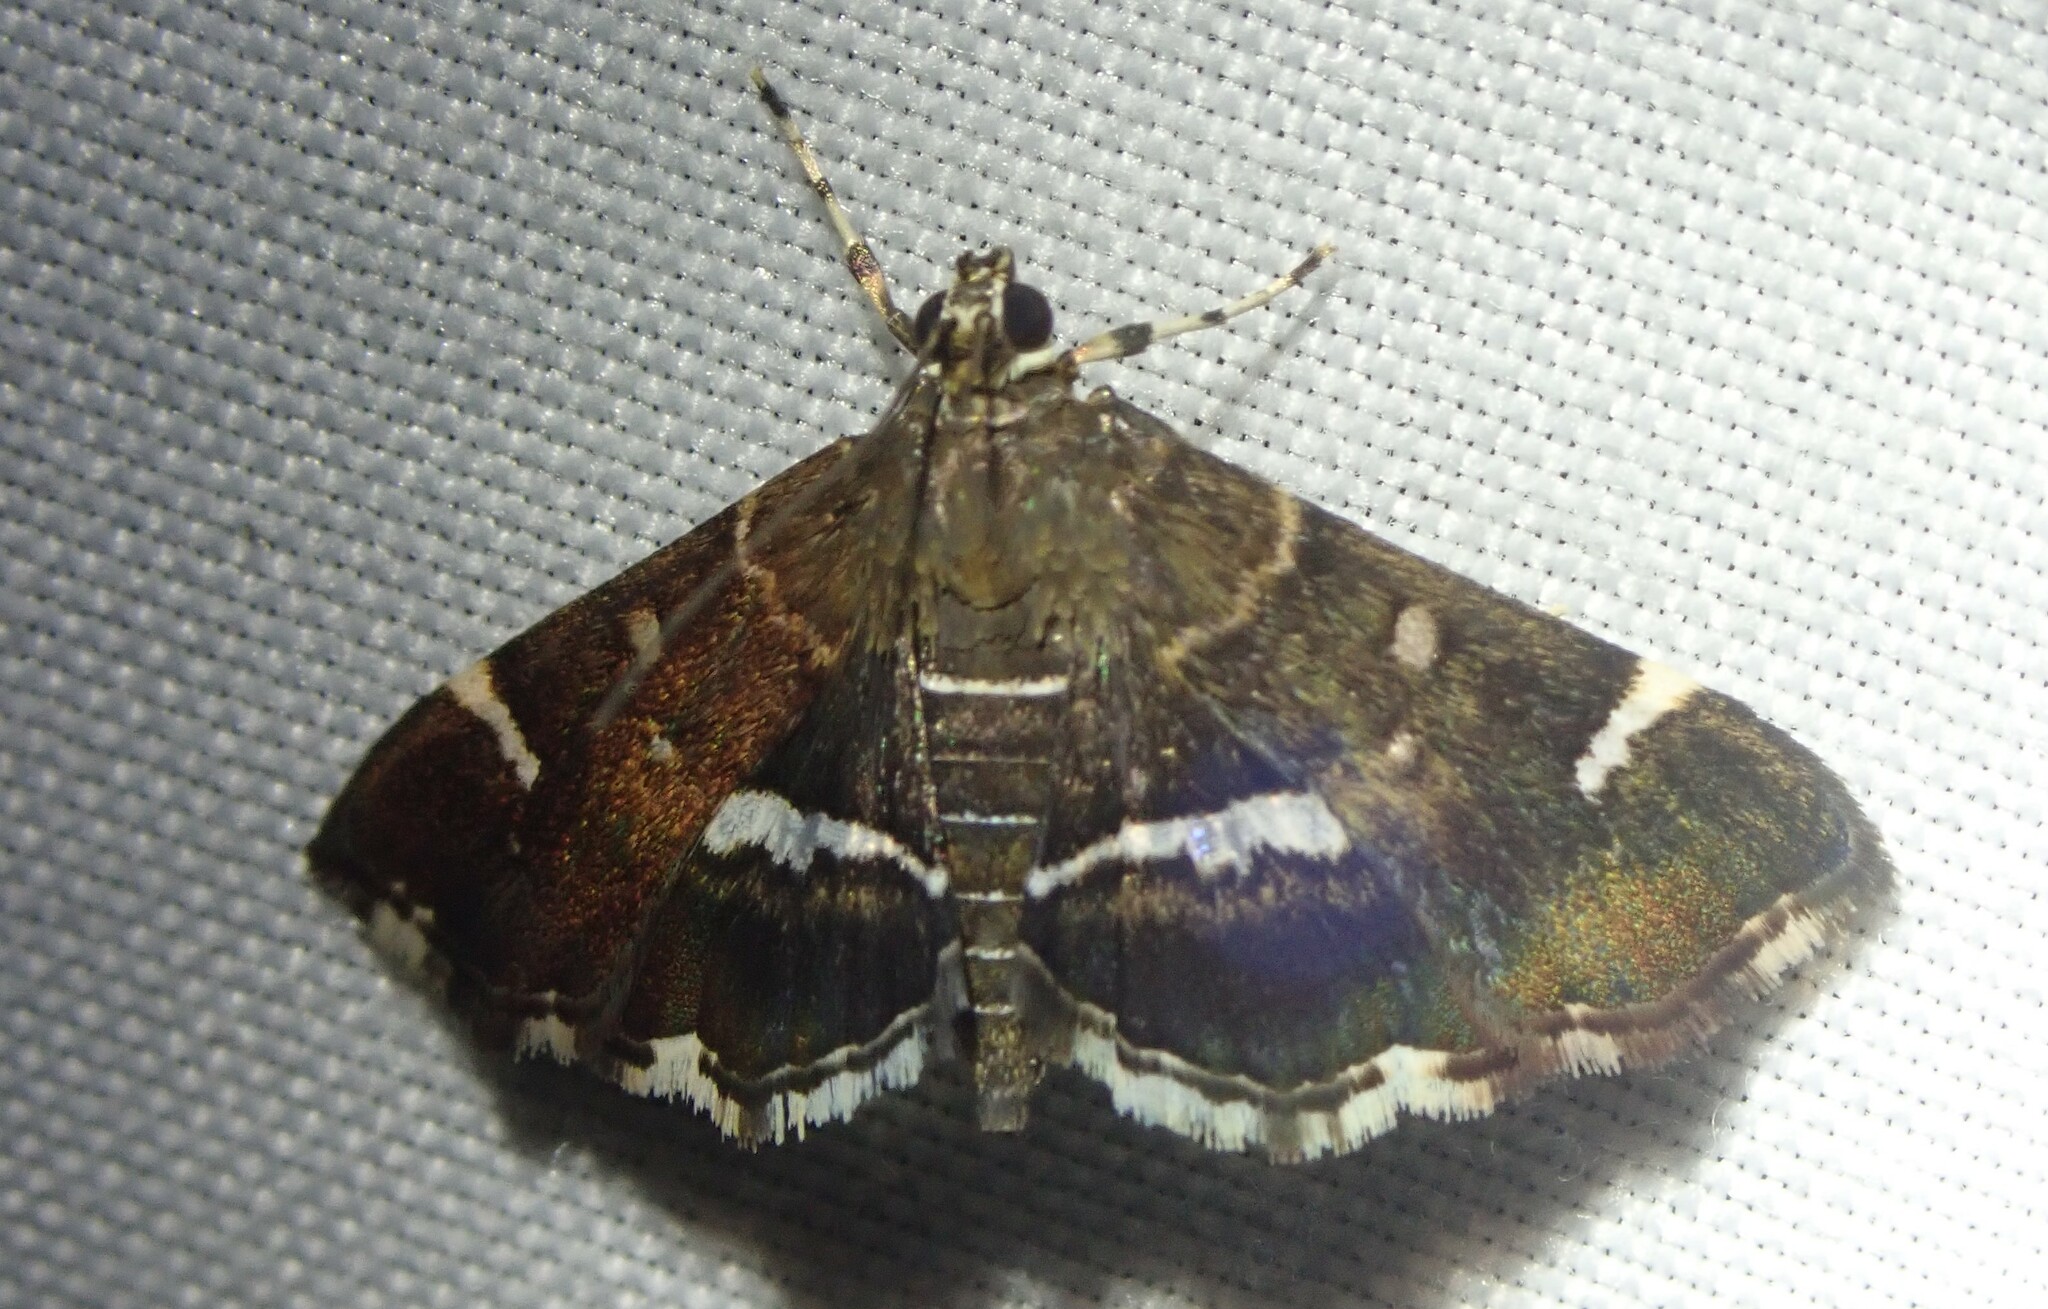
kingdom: Animalia
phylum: Arthropoda
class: Insecta
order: Lepidoptera
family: Crambidae
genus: Hymenia
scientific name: Hymenia perspectalis
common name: Spotted beet webworm
